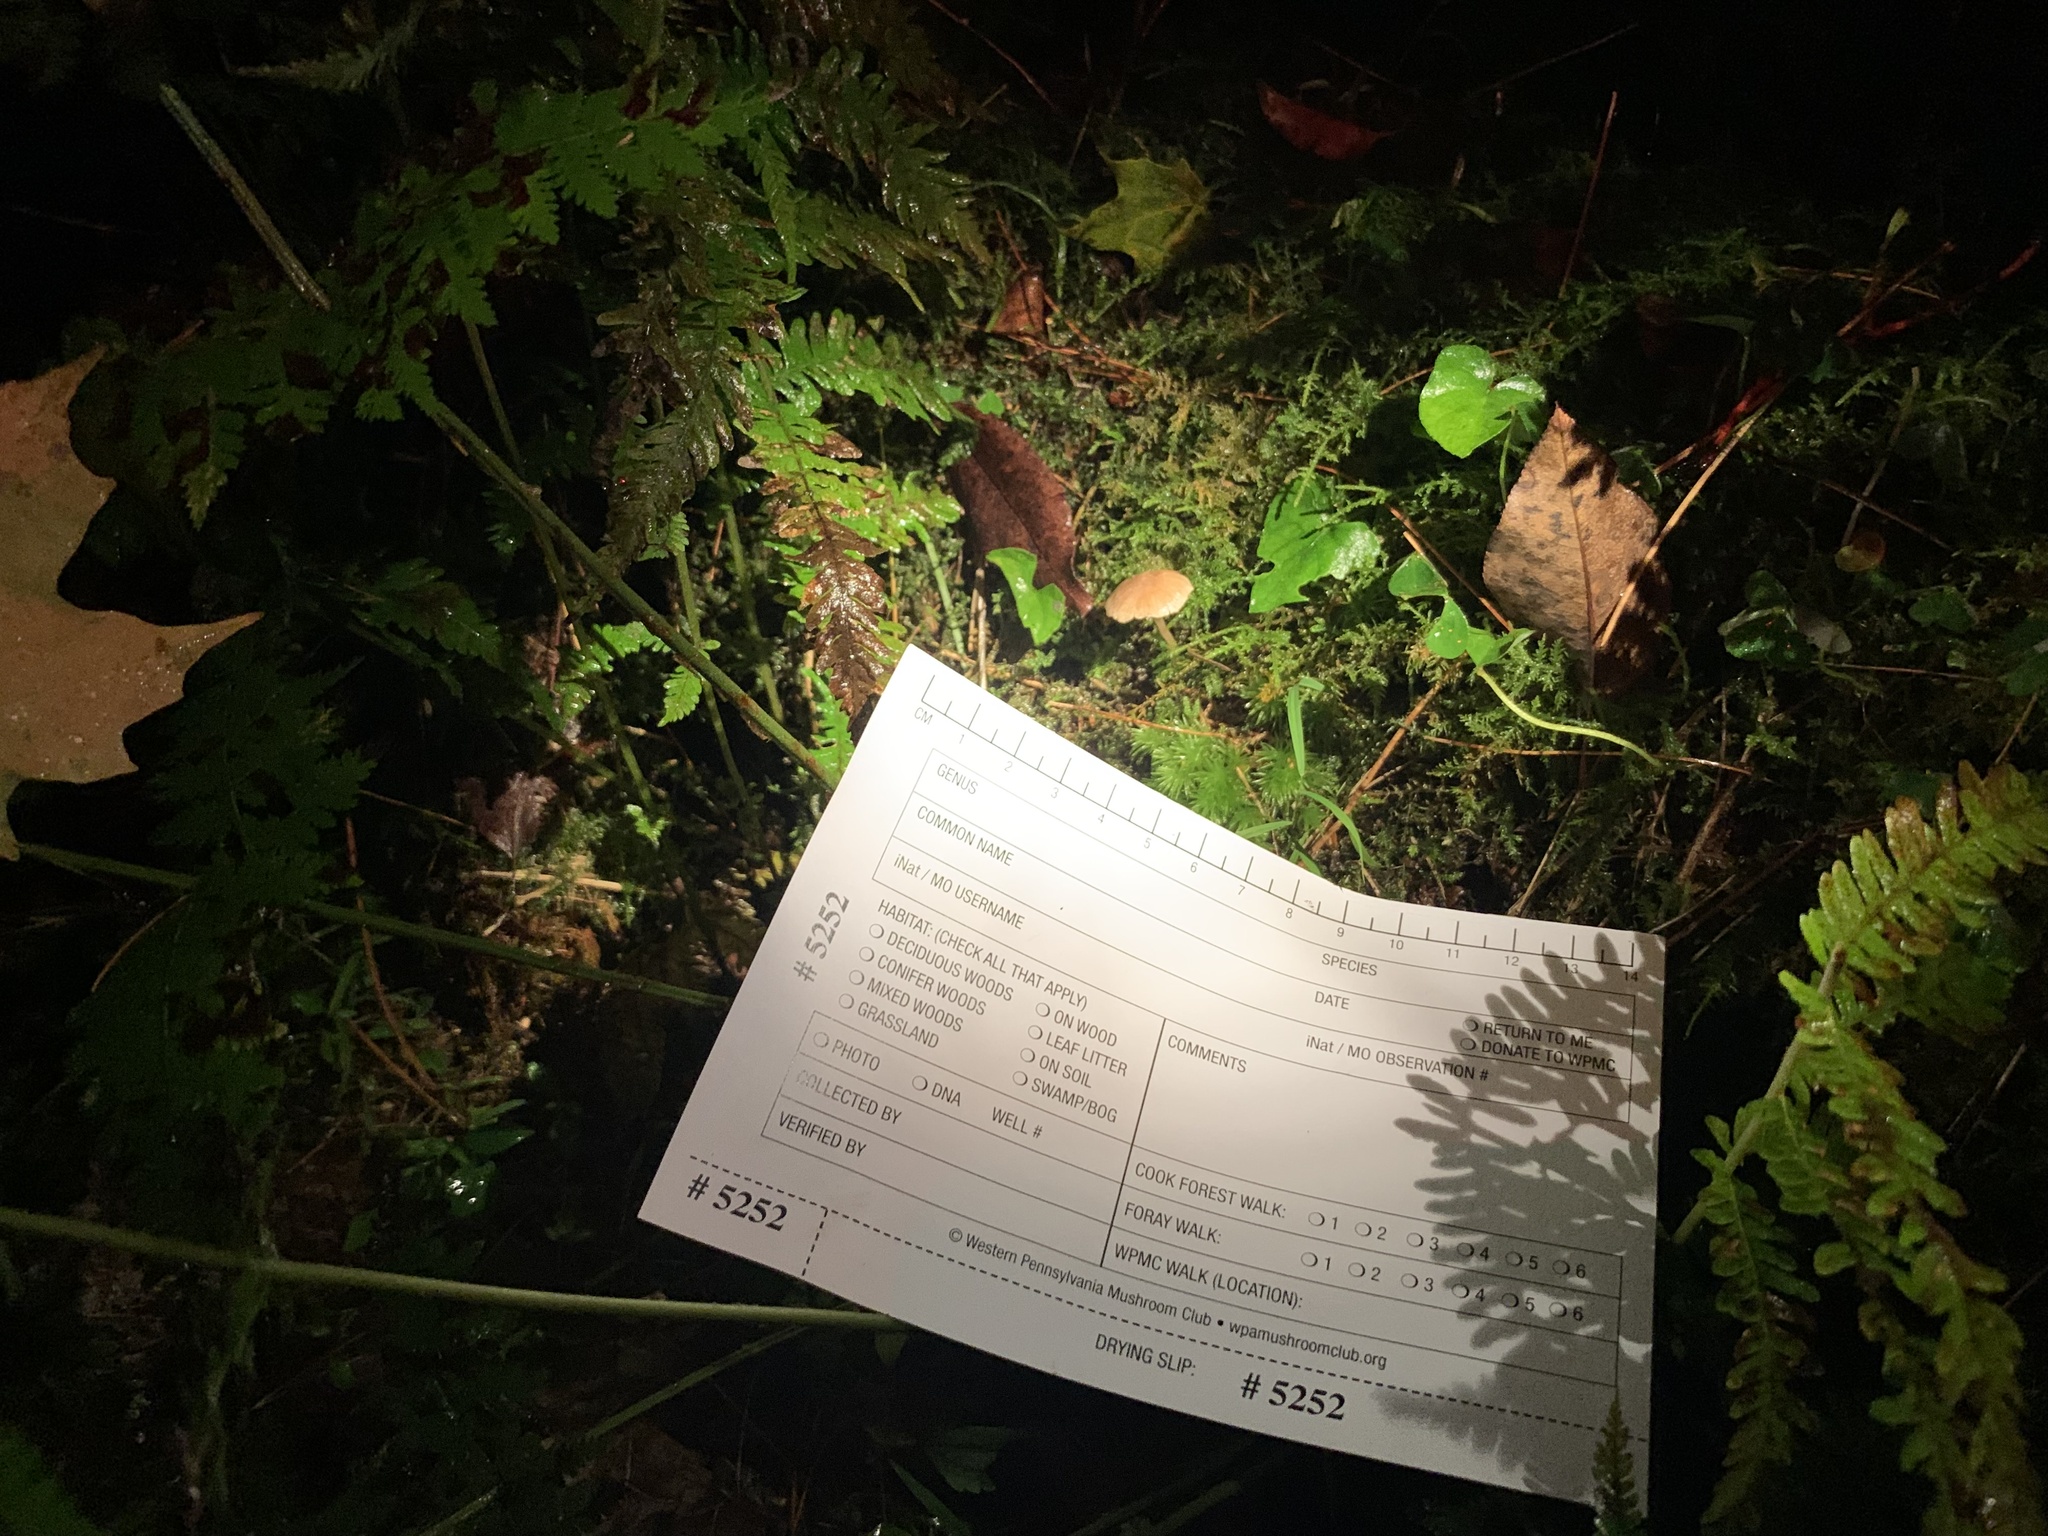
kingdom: Fungi
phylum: Basidiomycota
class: Agaricomycetes
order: Agaricales
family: Callistosporiaceae
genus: Callistosporium
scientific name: Callistosporium pseudofelleum
